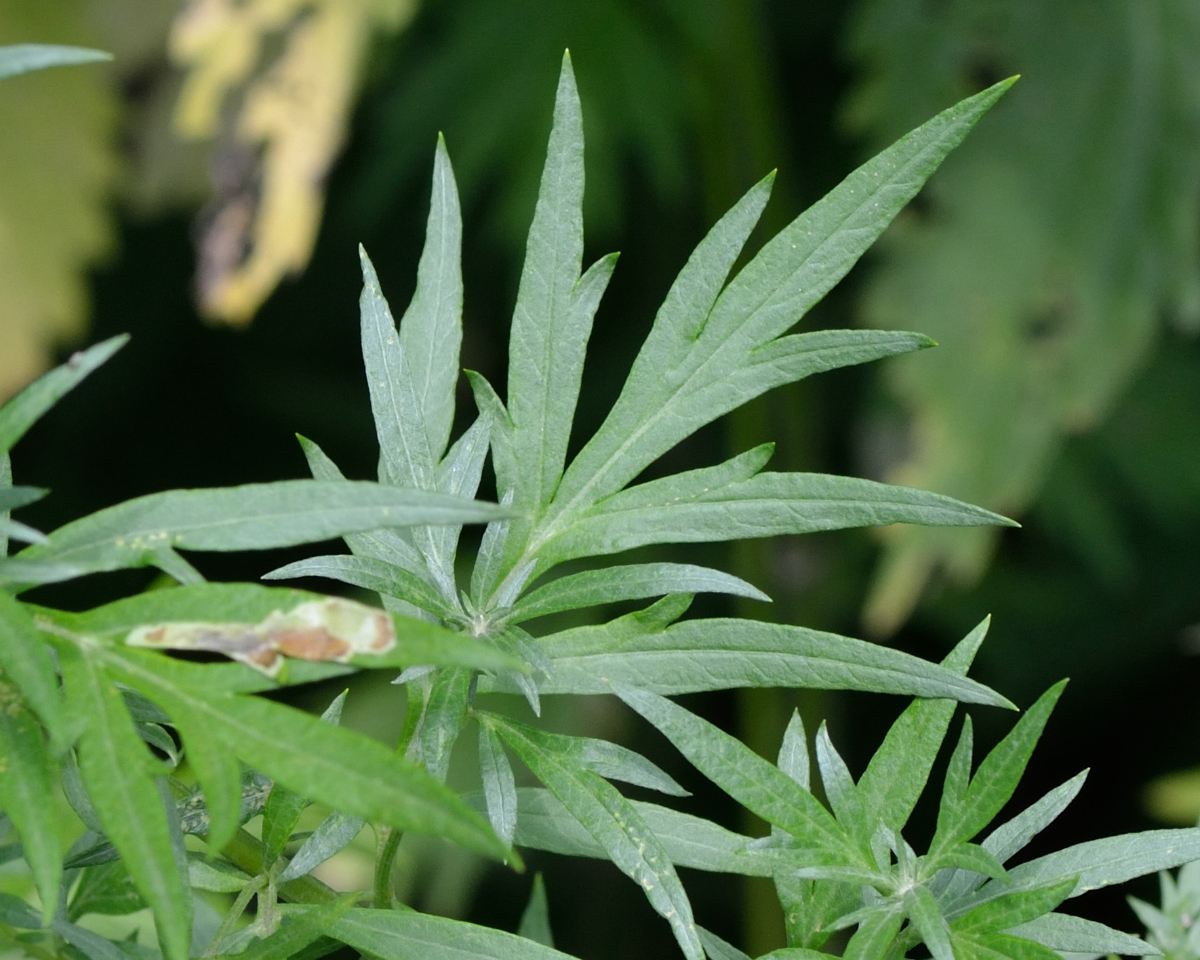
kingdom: Plantae
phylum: Tracheophyta
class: Magnoliopsida
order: Asterales
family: Asteraceae
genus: Artemisia
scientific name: Artemisia vulgaris
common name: Mugwort
